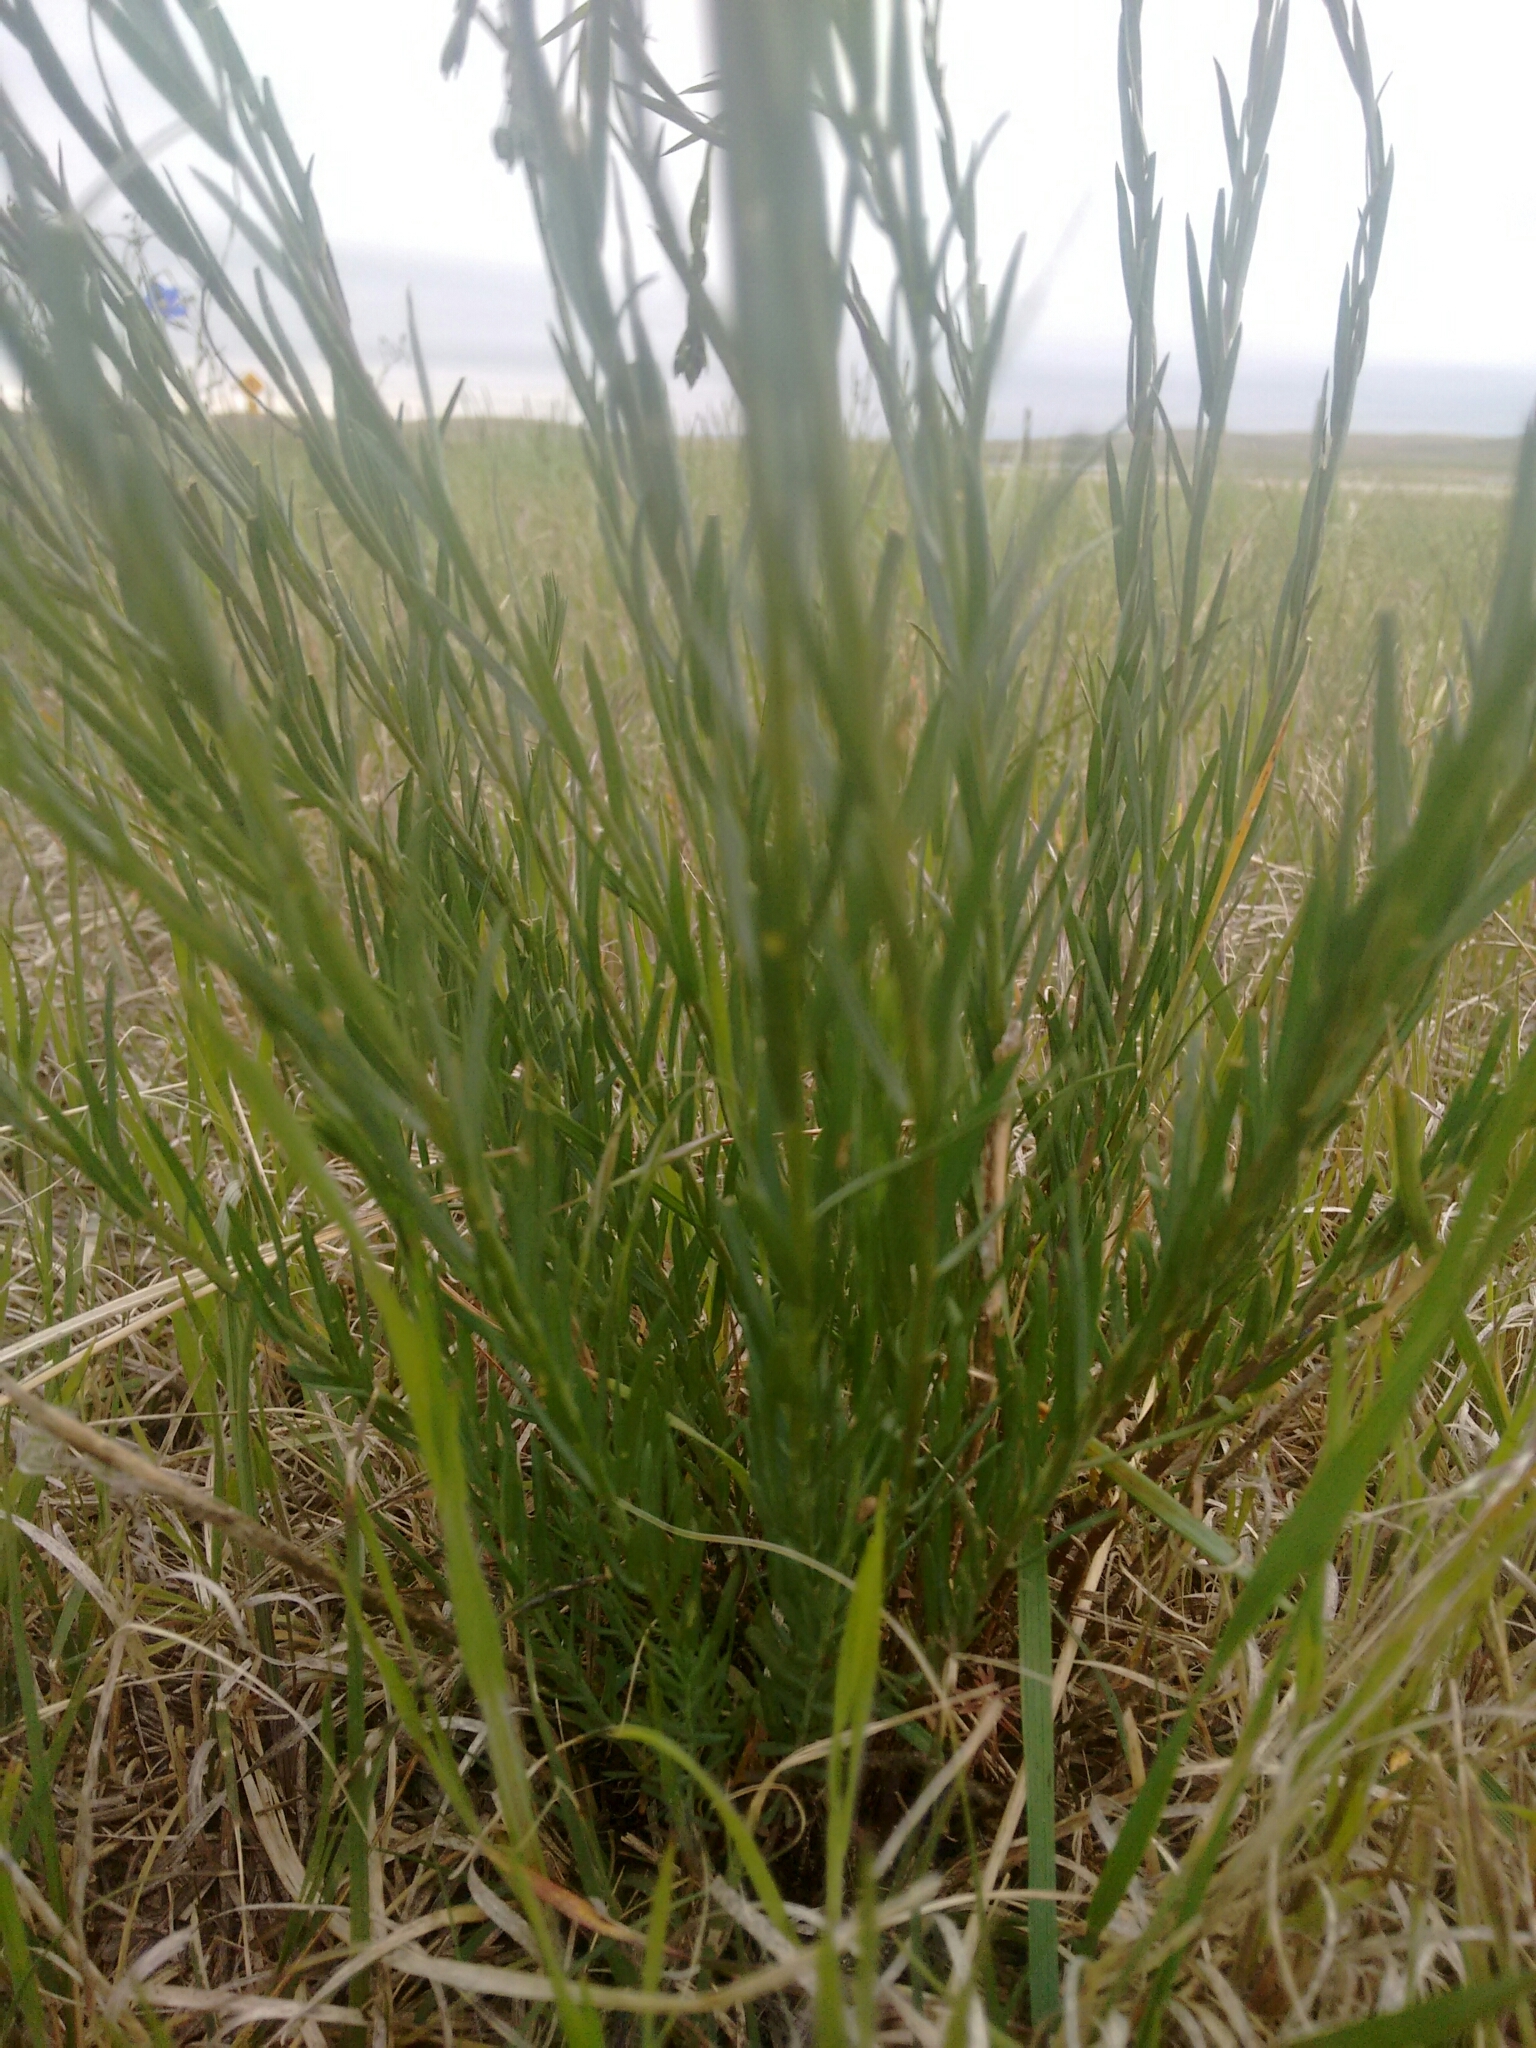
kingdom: Plantae
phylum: Tracheophyta
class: Magnoliopsida
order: Malpighiales
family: Linaceae
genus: Linum
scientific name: Linum lewisii
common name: Prairie flax
